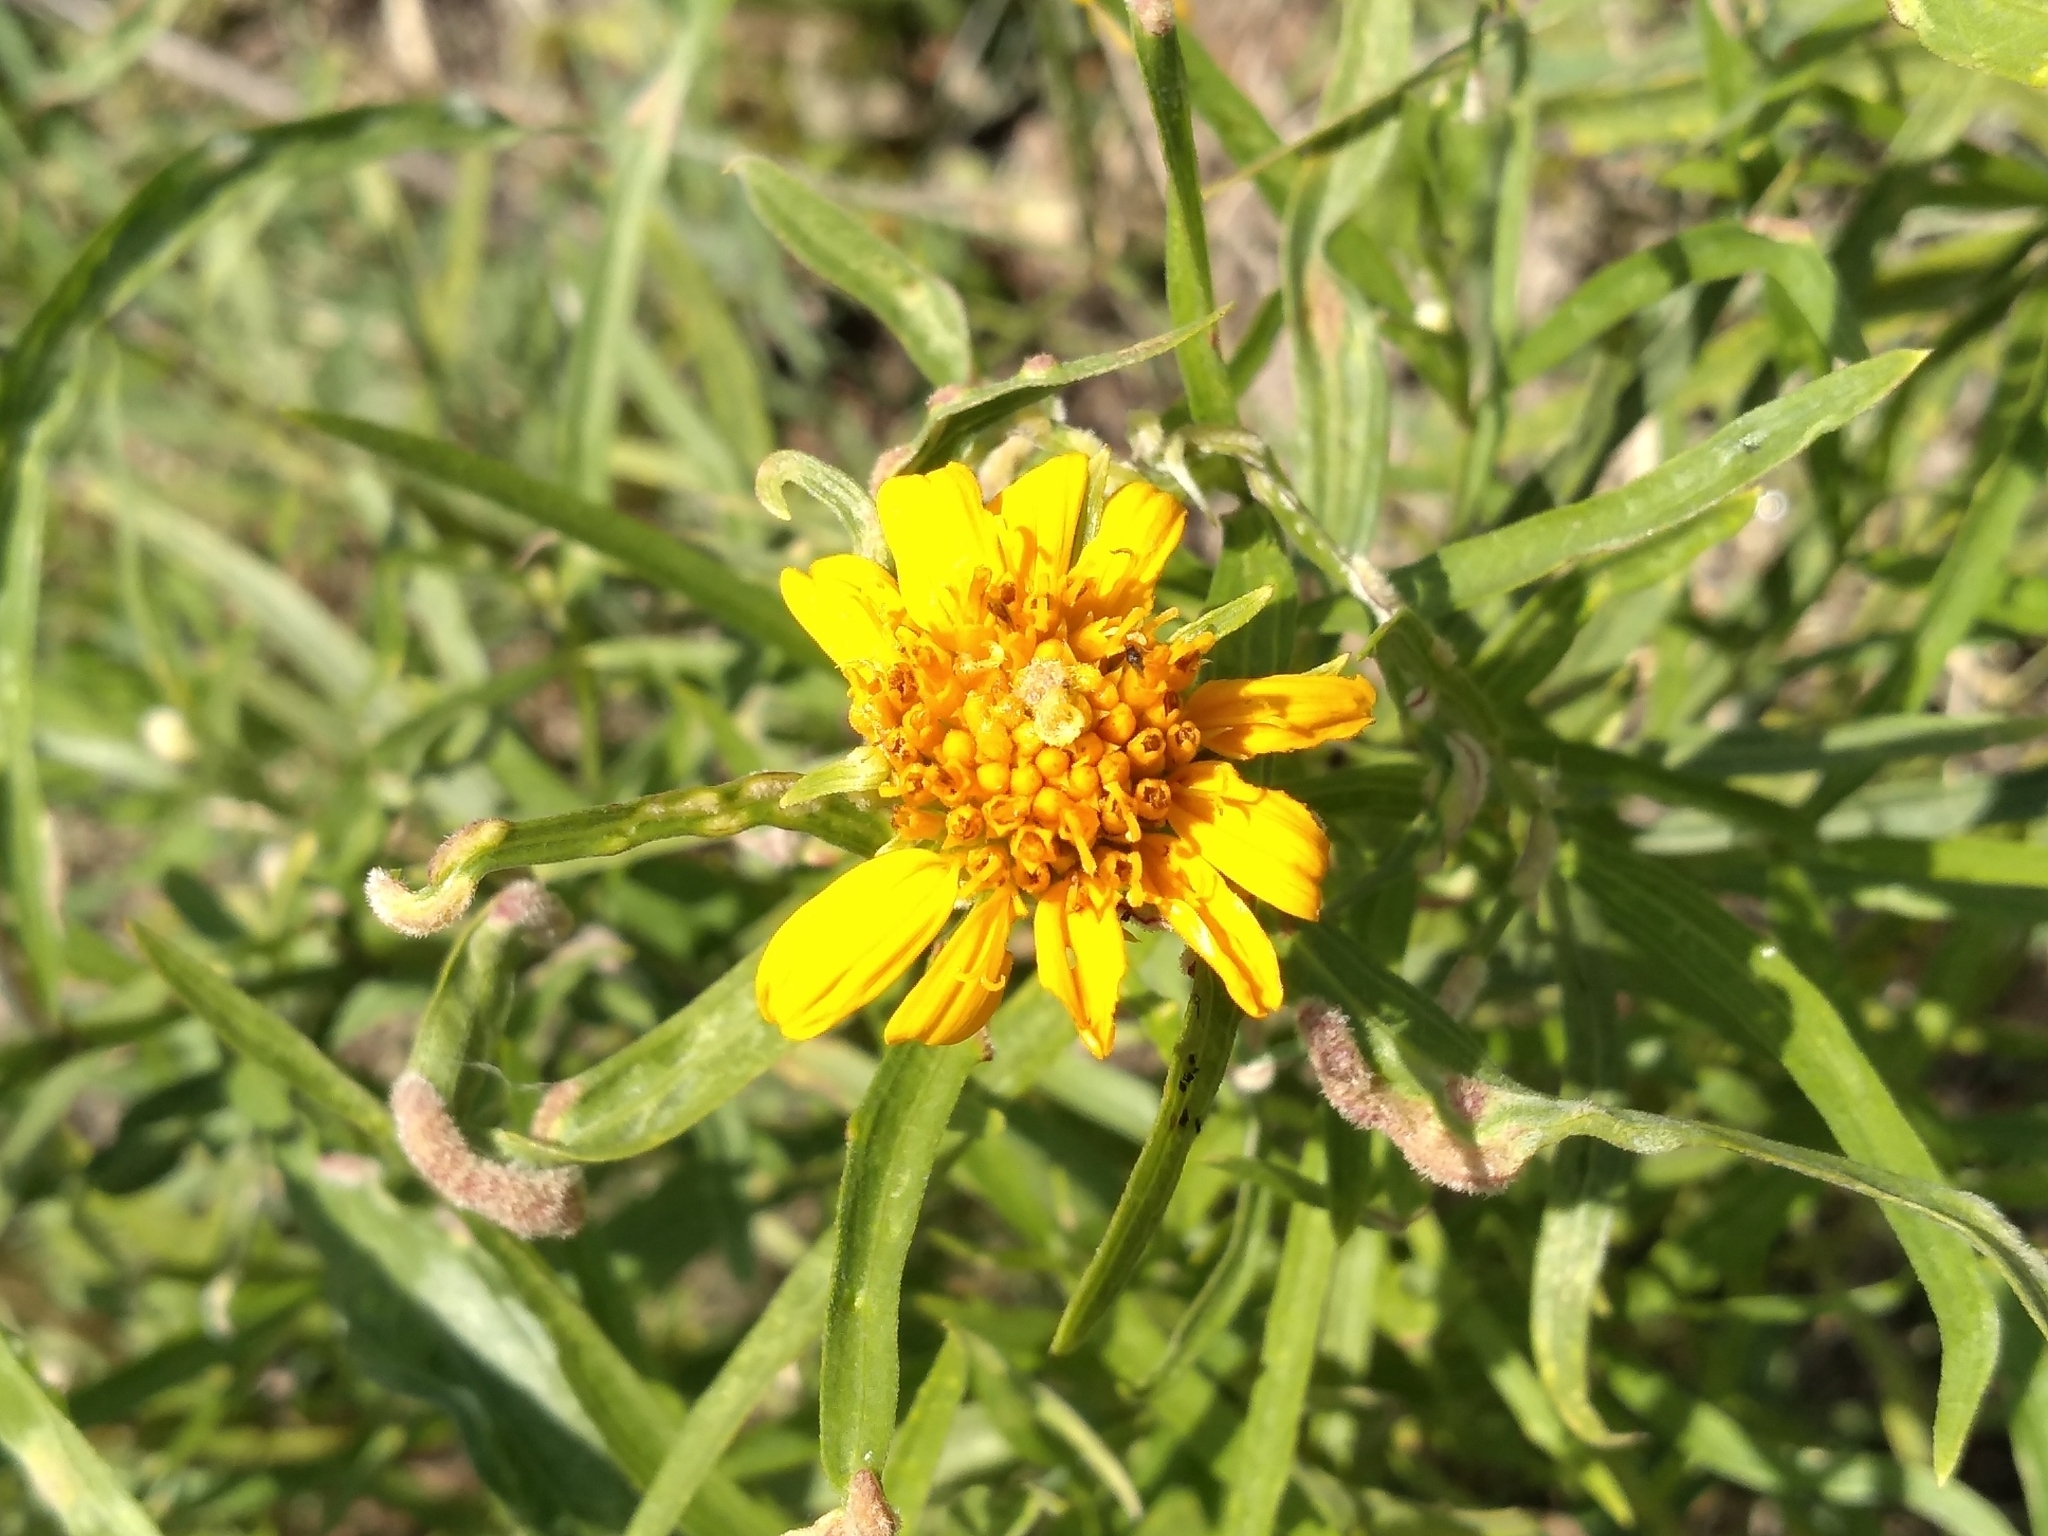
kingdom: Plantae
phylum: Tracheophyta
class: Magnoliopsida
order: Asterales
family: Asteraceae
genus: Pascalia
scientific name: Pascalia glauca
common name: Beach creeping oxeye
